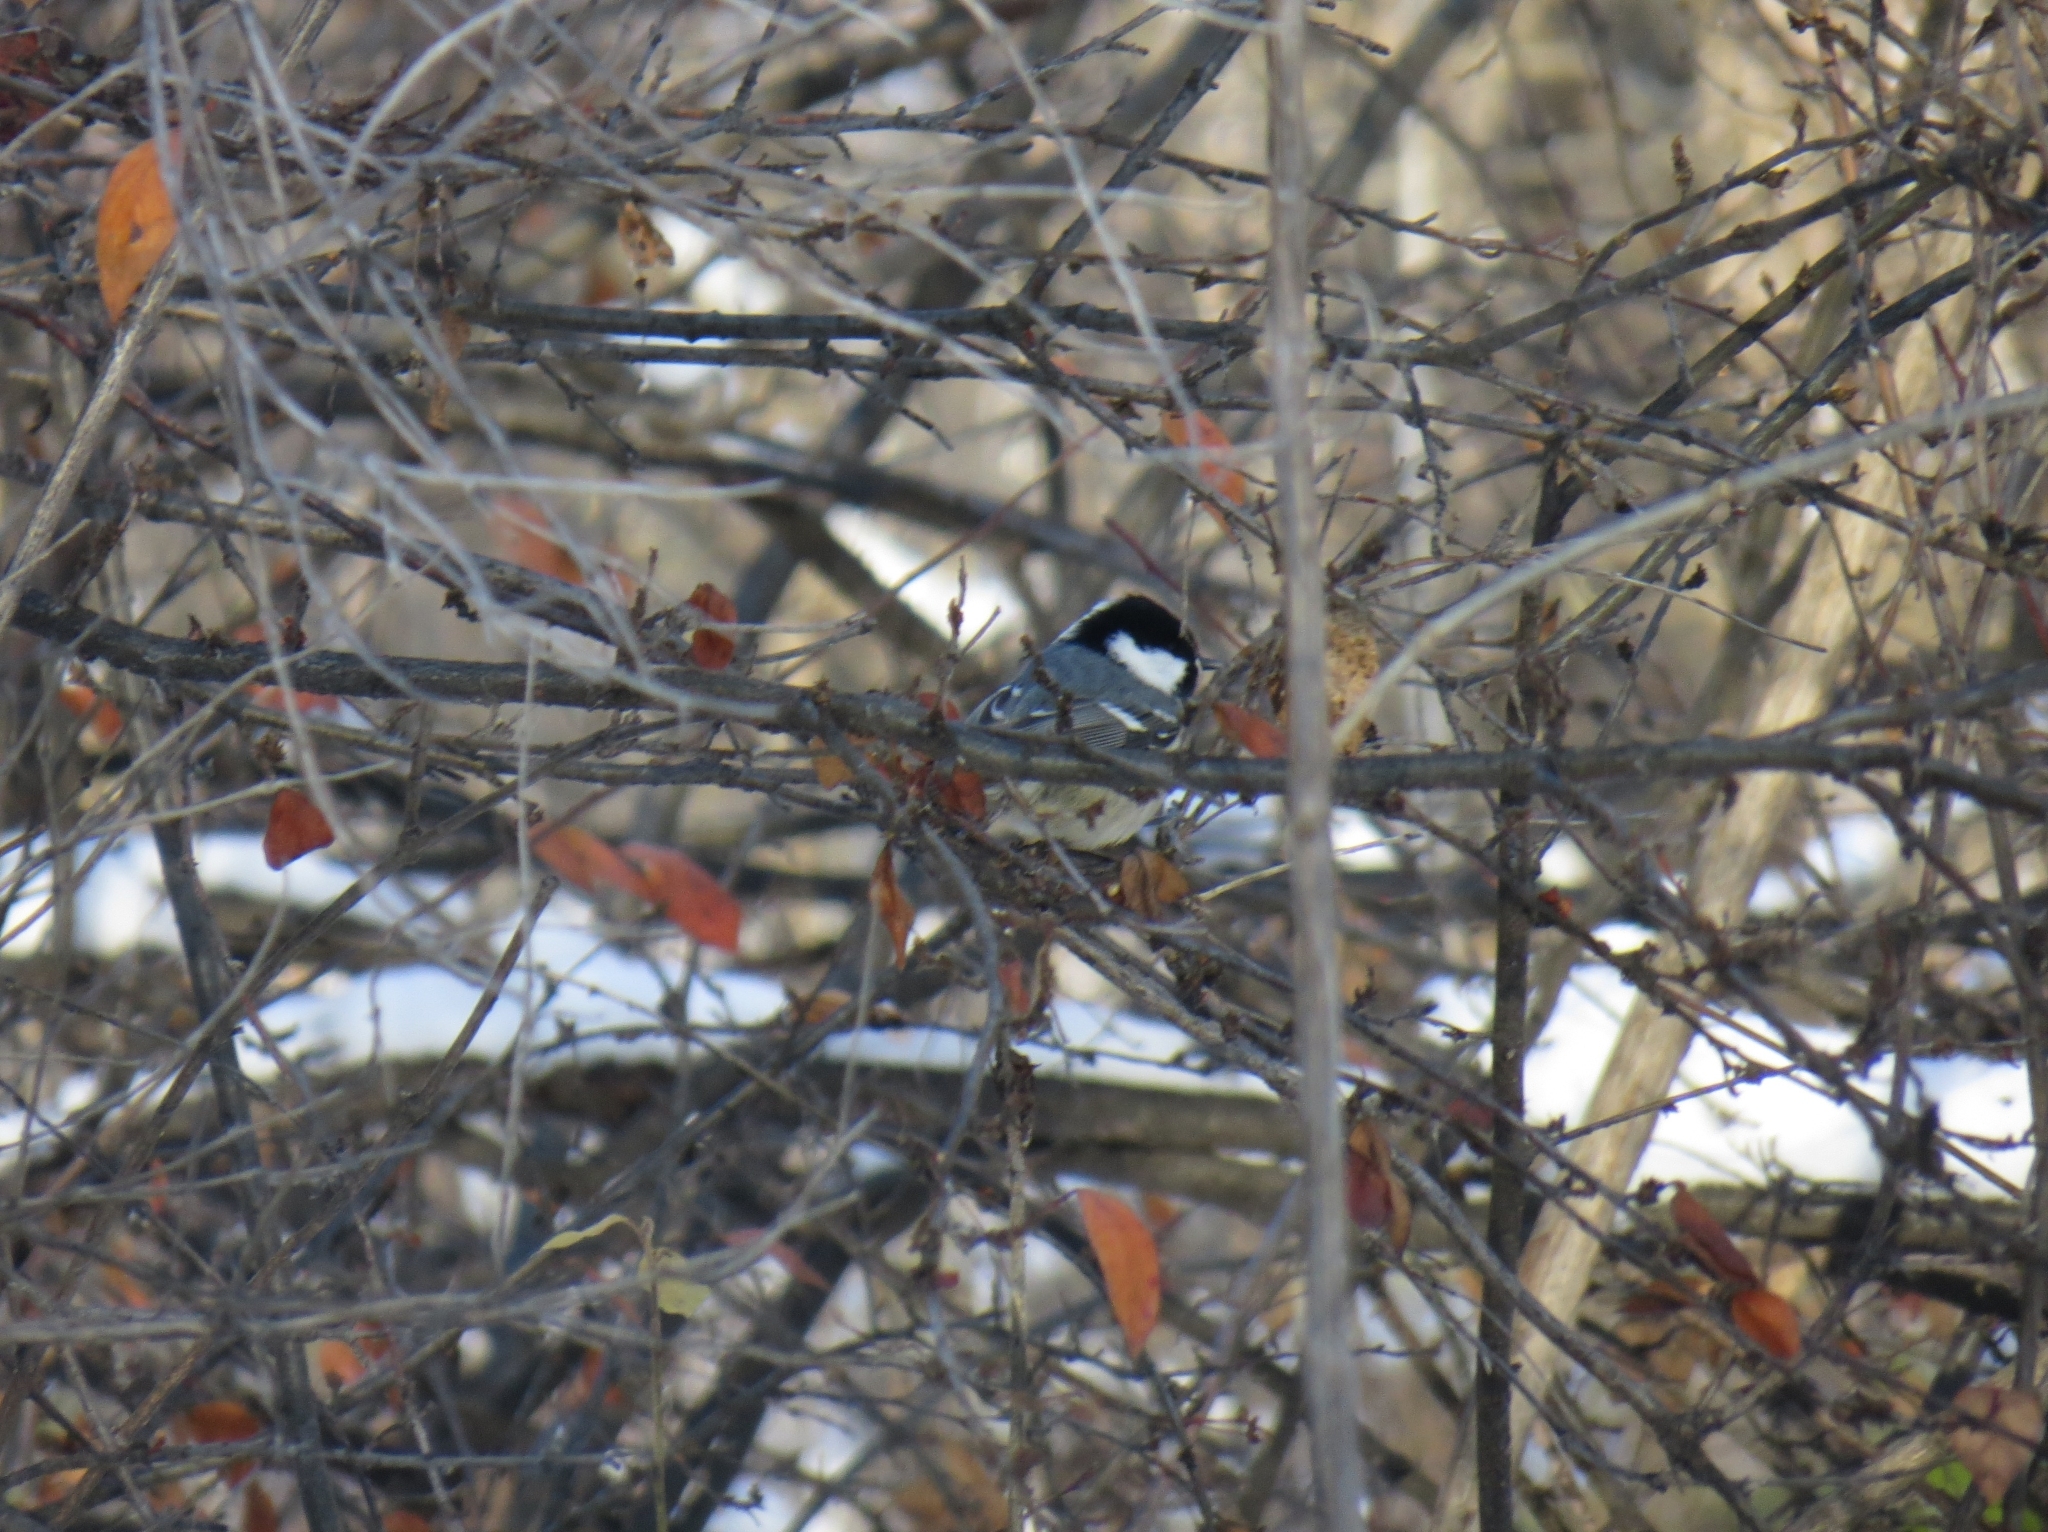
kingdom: Animalia
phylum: Chordata
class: Aves
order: Passeriformes
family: Paridae
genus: Periparus
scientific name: Periparus ater
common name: Coal tit
